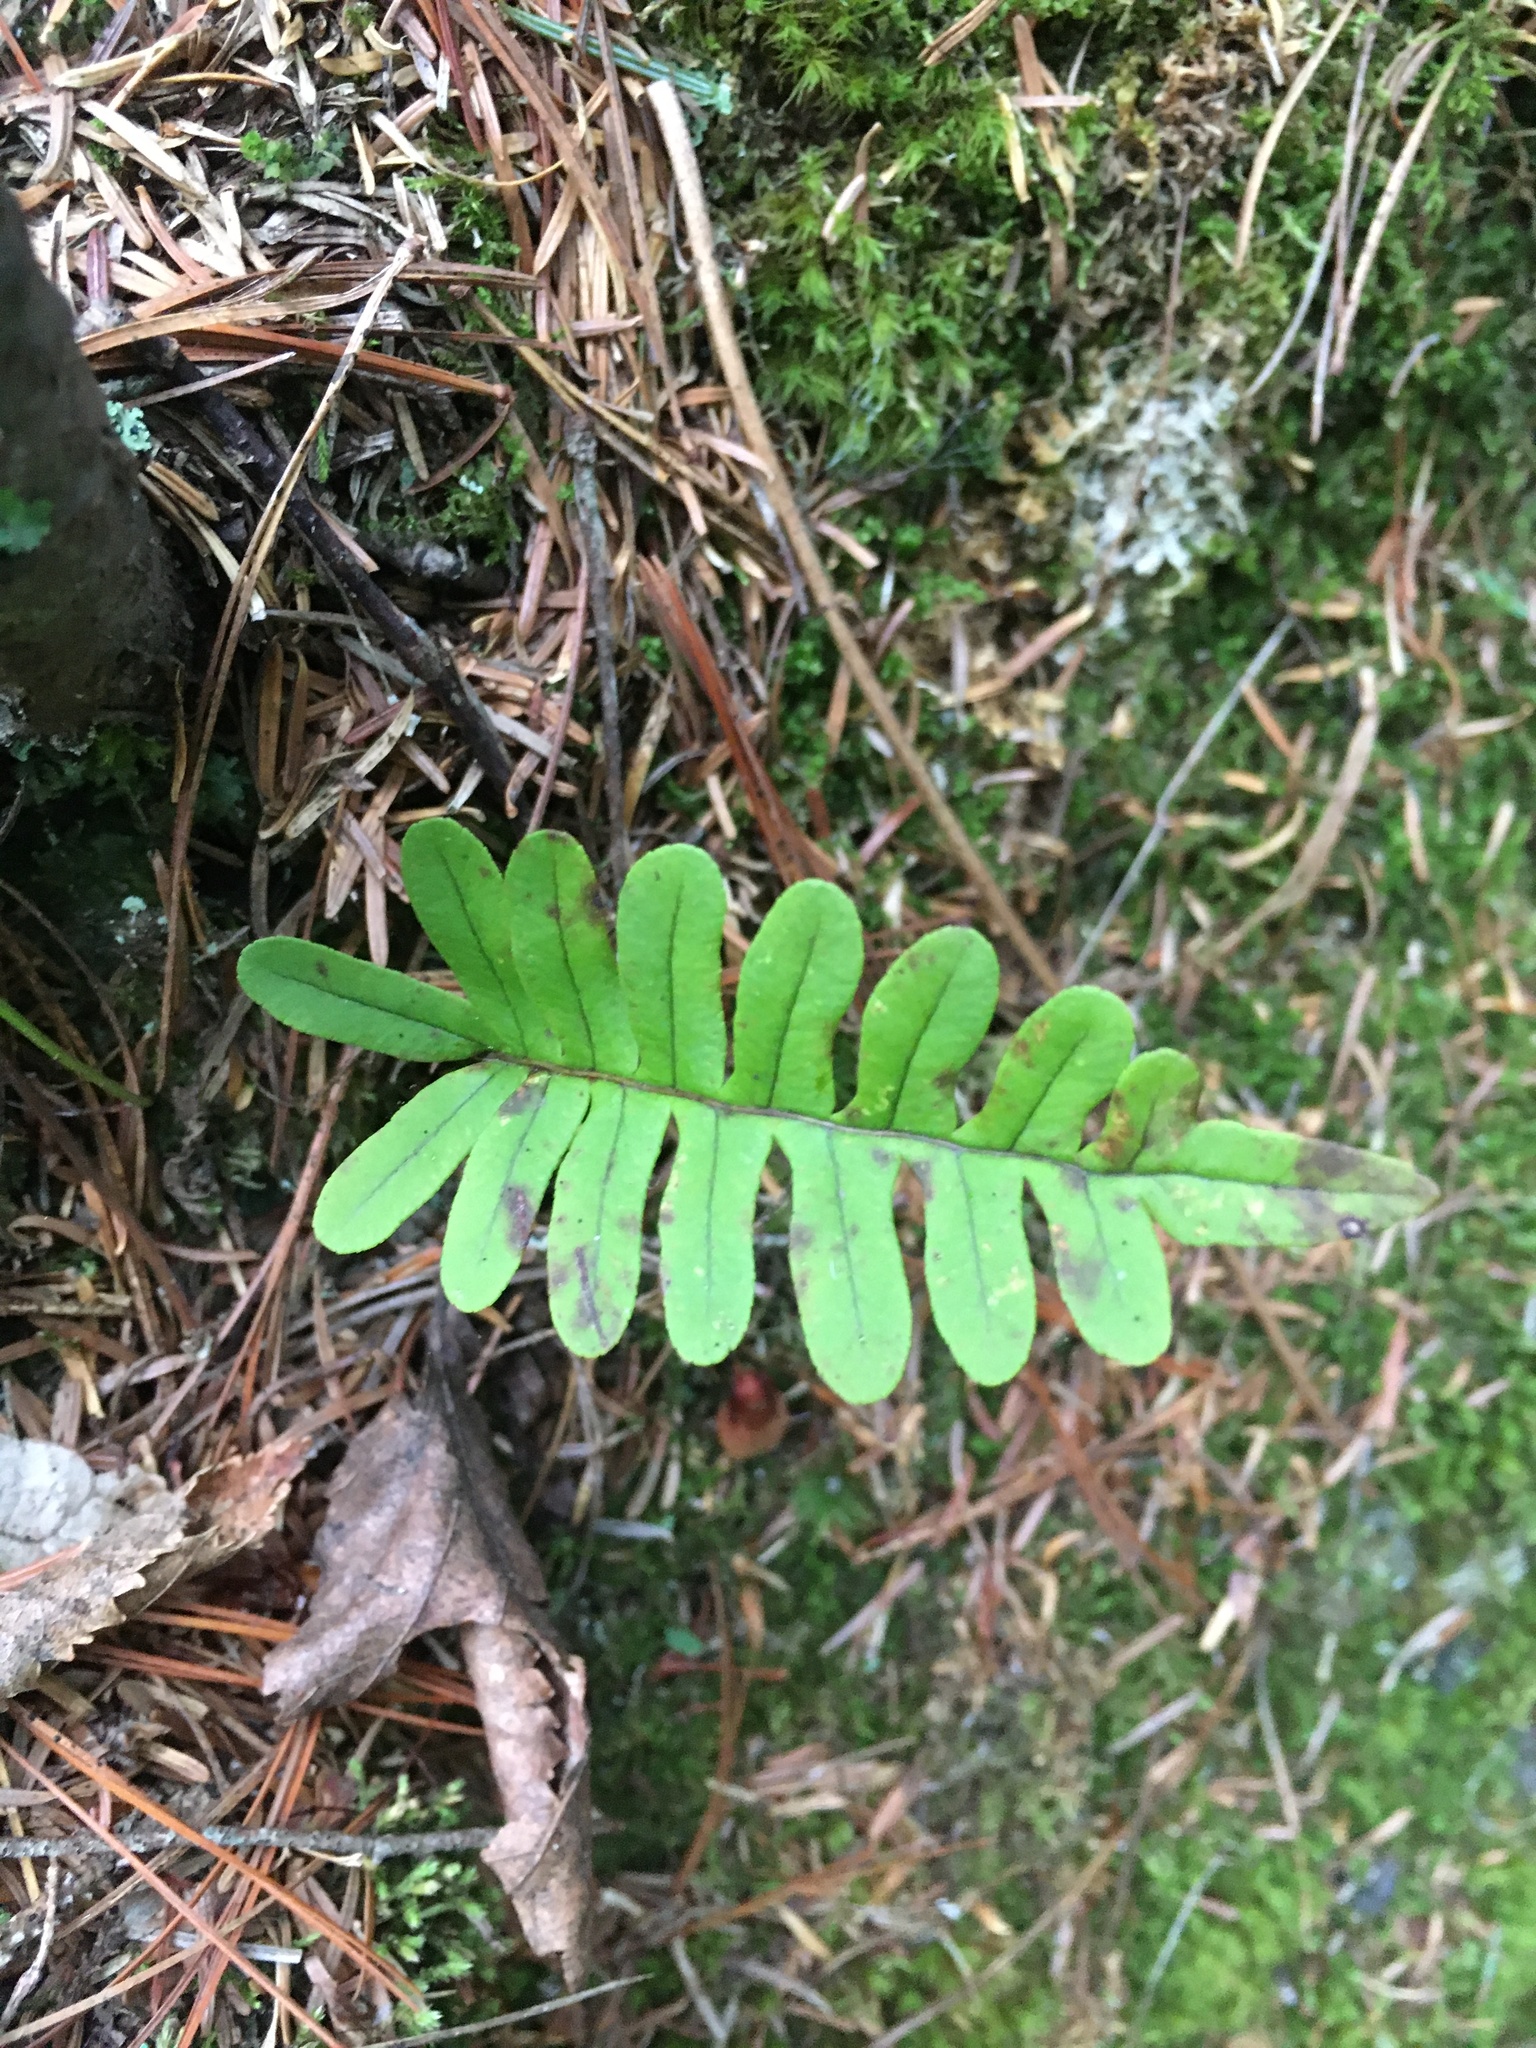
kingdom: Plantae
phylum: Tracheophyta
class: Polypodiopsida
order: Polypodiales
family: Polypodiaceae
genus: Polypodium
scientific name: Polypodium virginianum
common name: American wall fern
